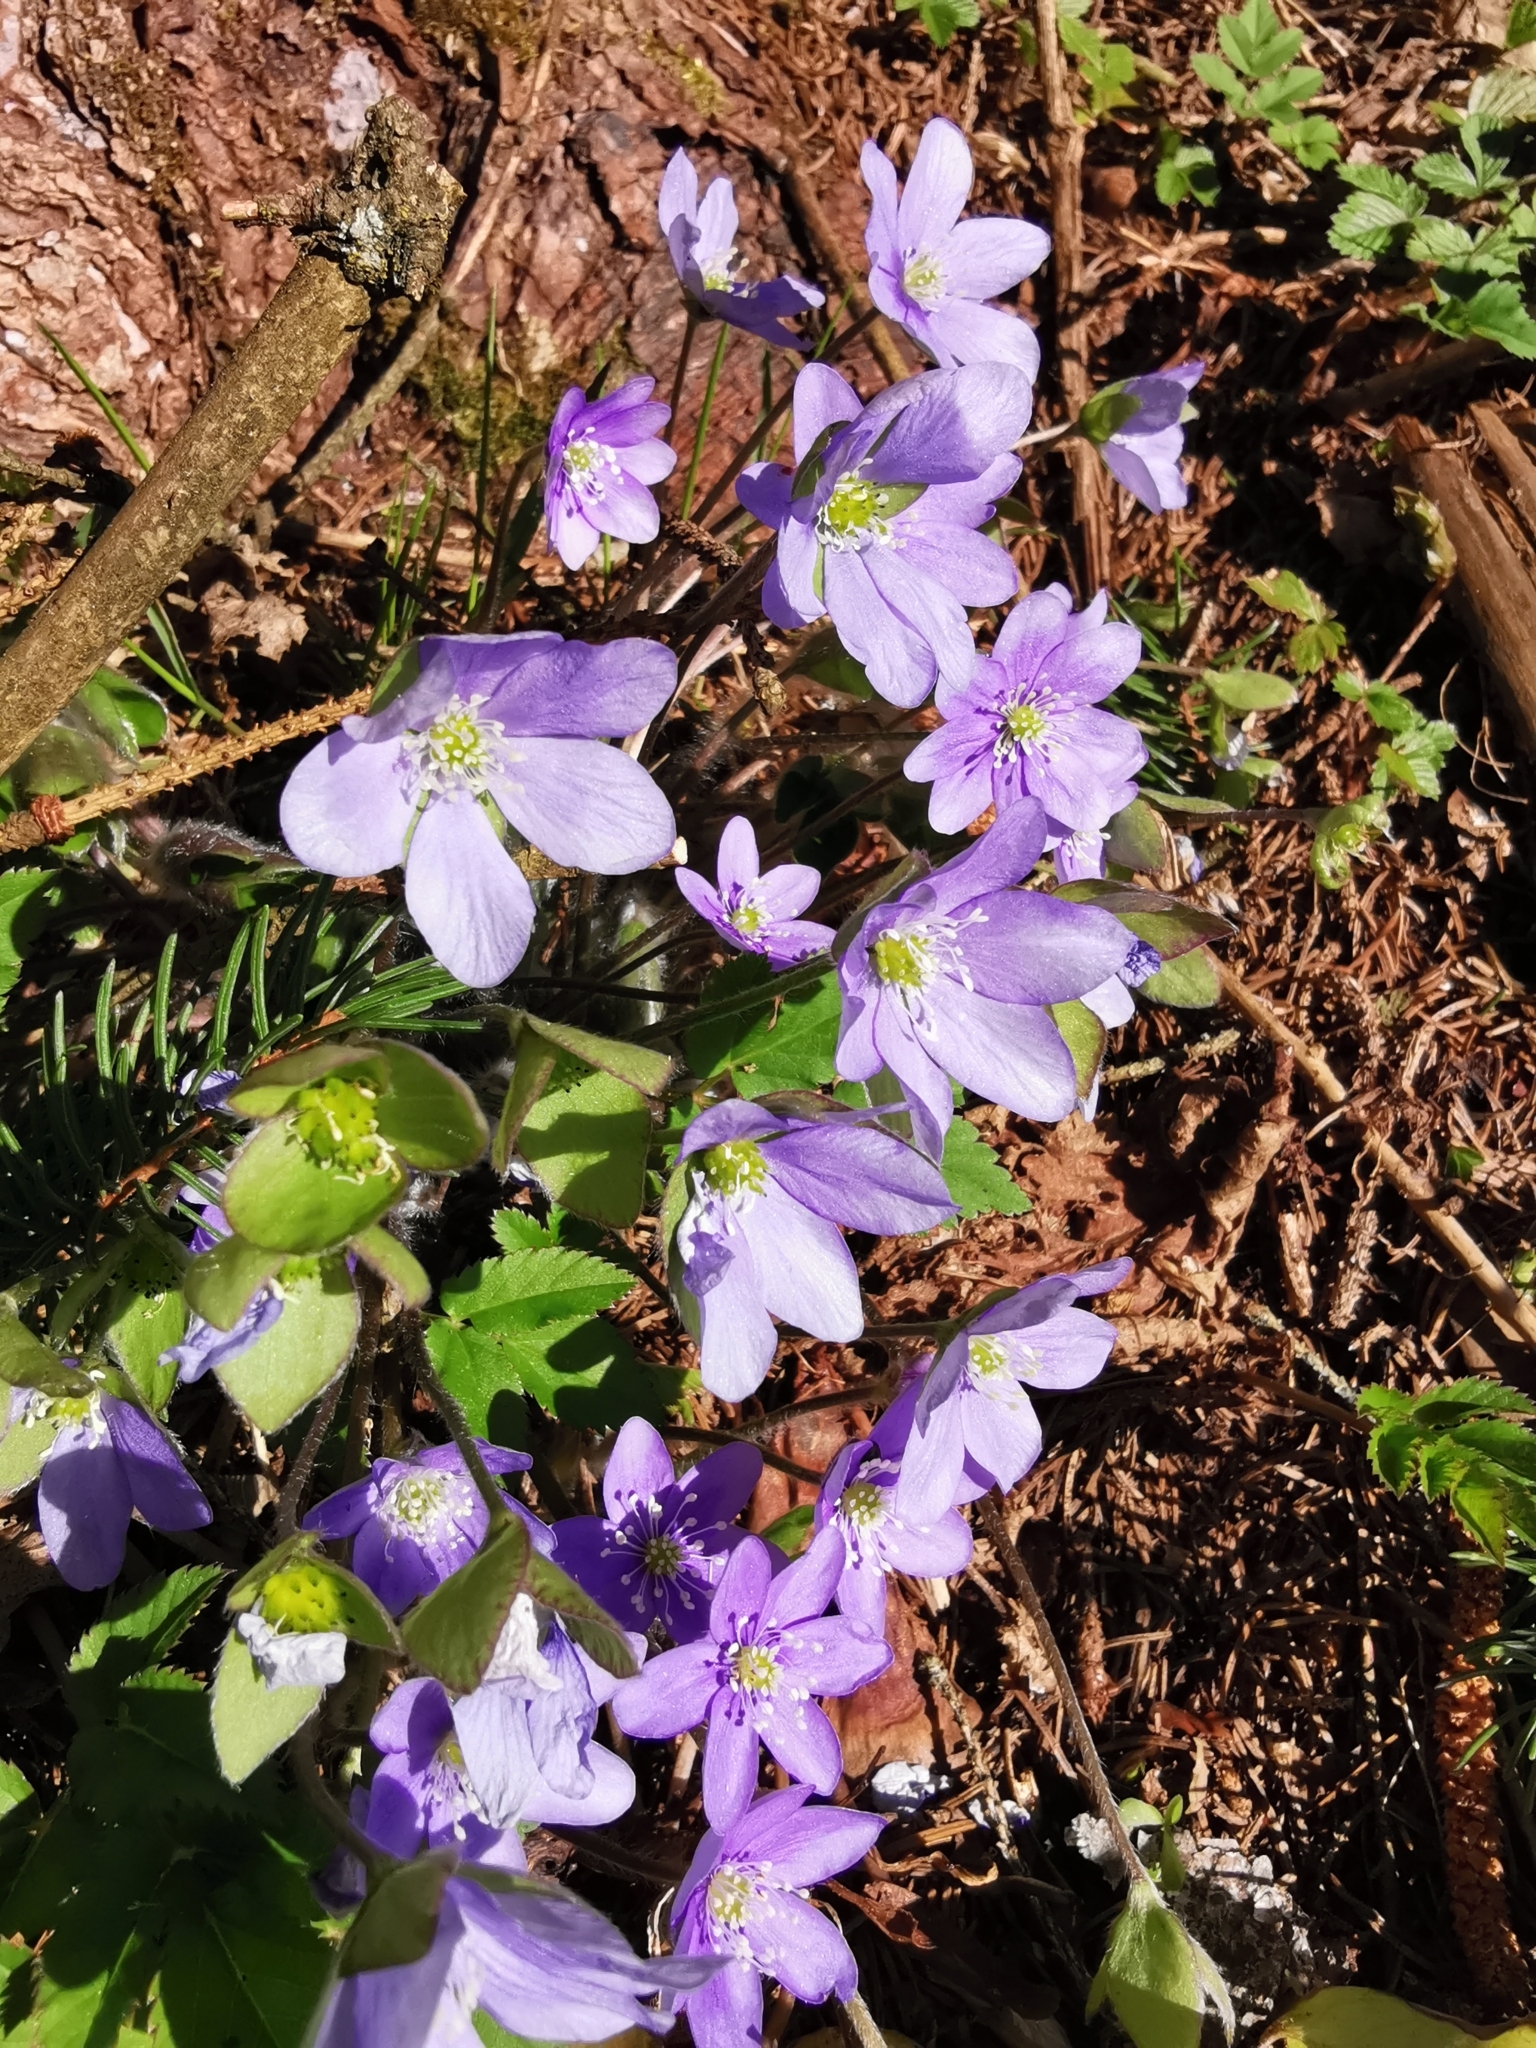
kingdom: Plantae
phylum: Tracheophyta
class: Magnoliopsida
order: Ranunculales
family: Ranunculaceae
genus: Hepatica
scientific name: Hepatica nobilis
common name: Liverleaf
